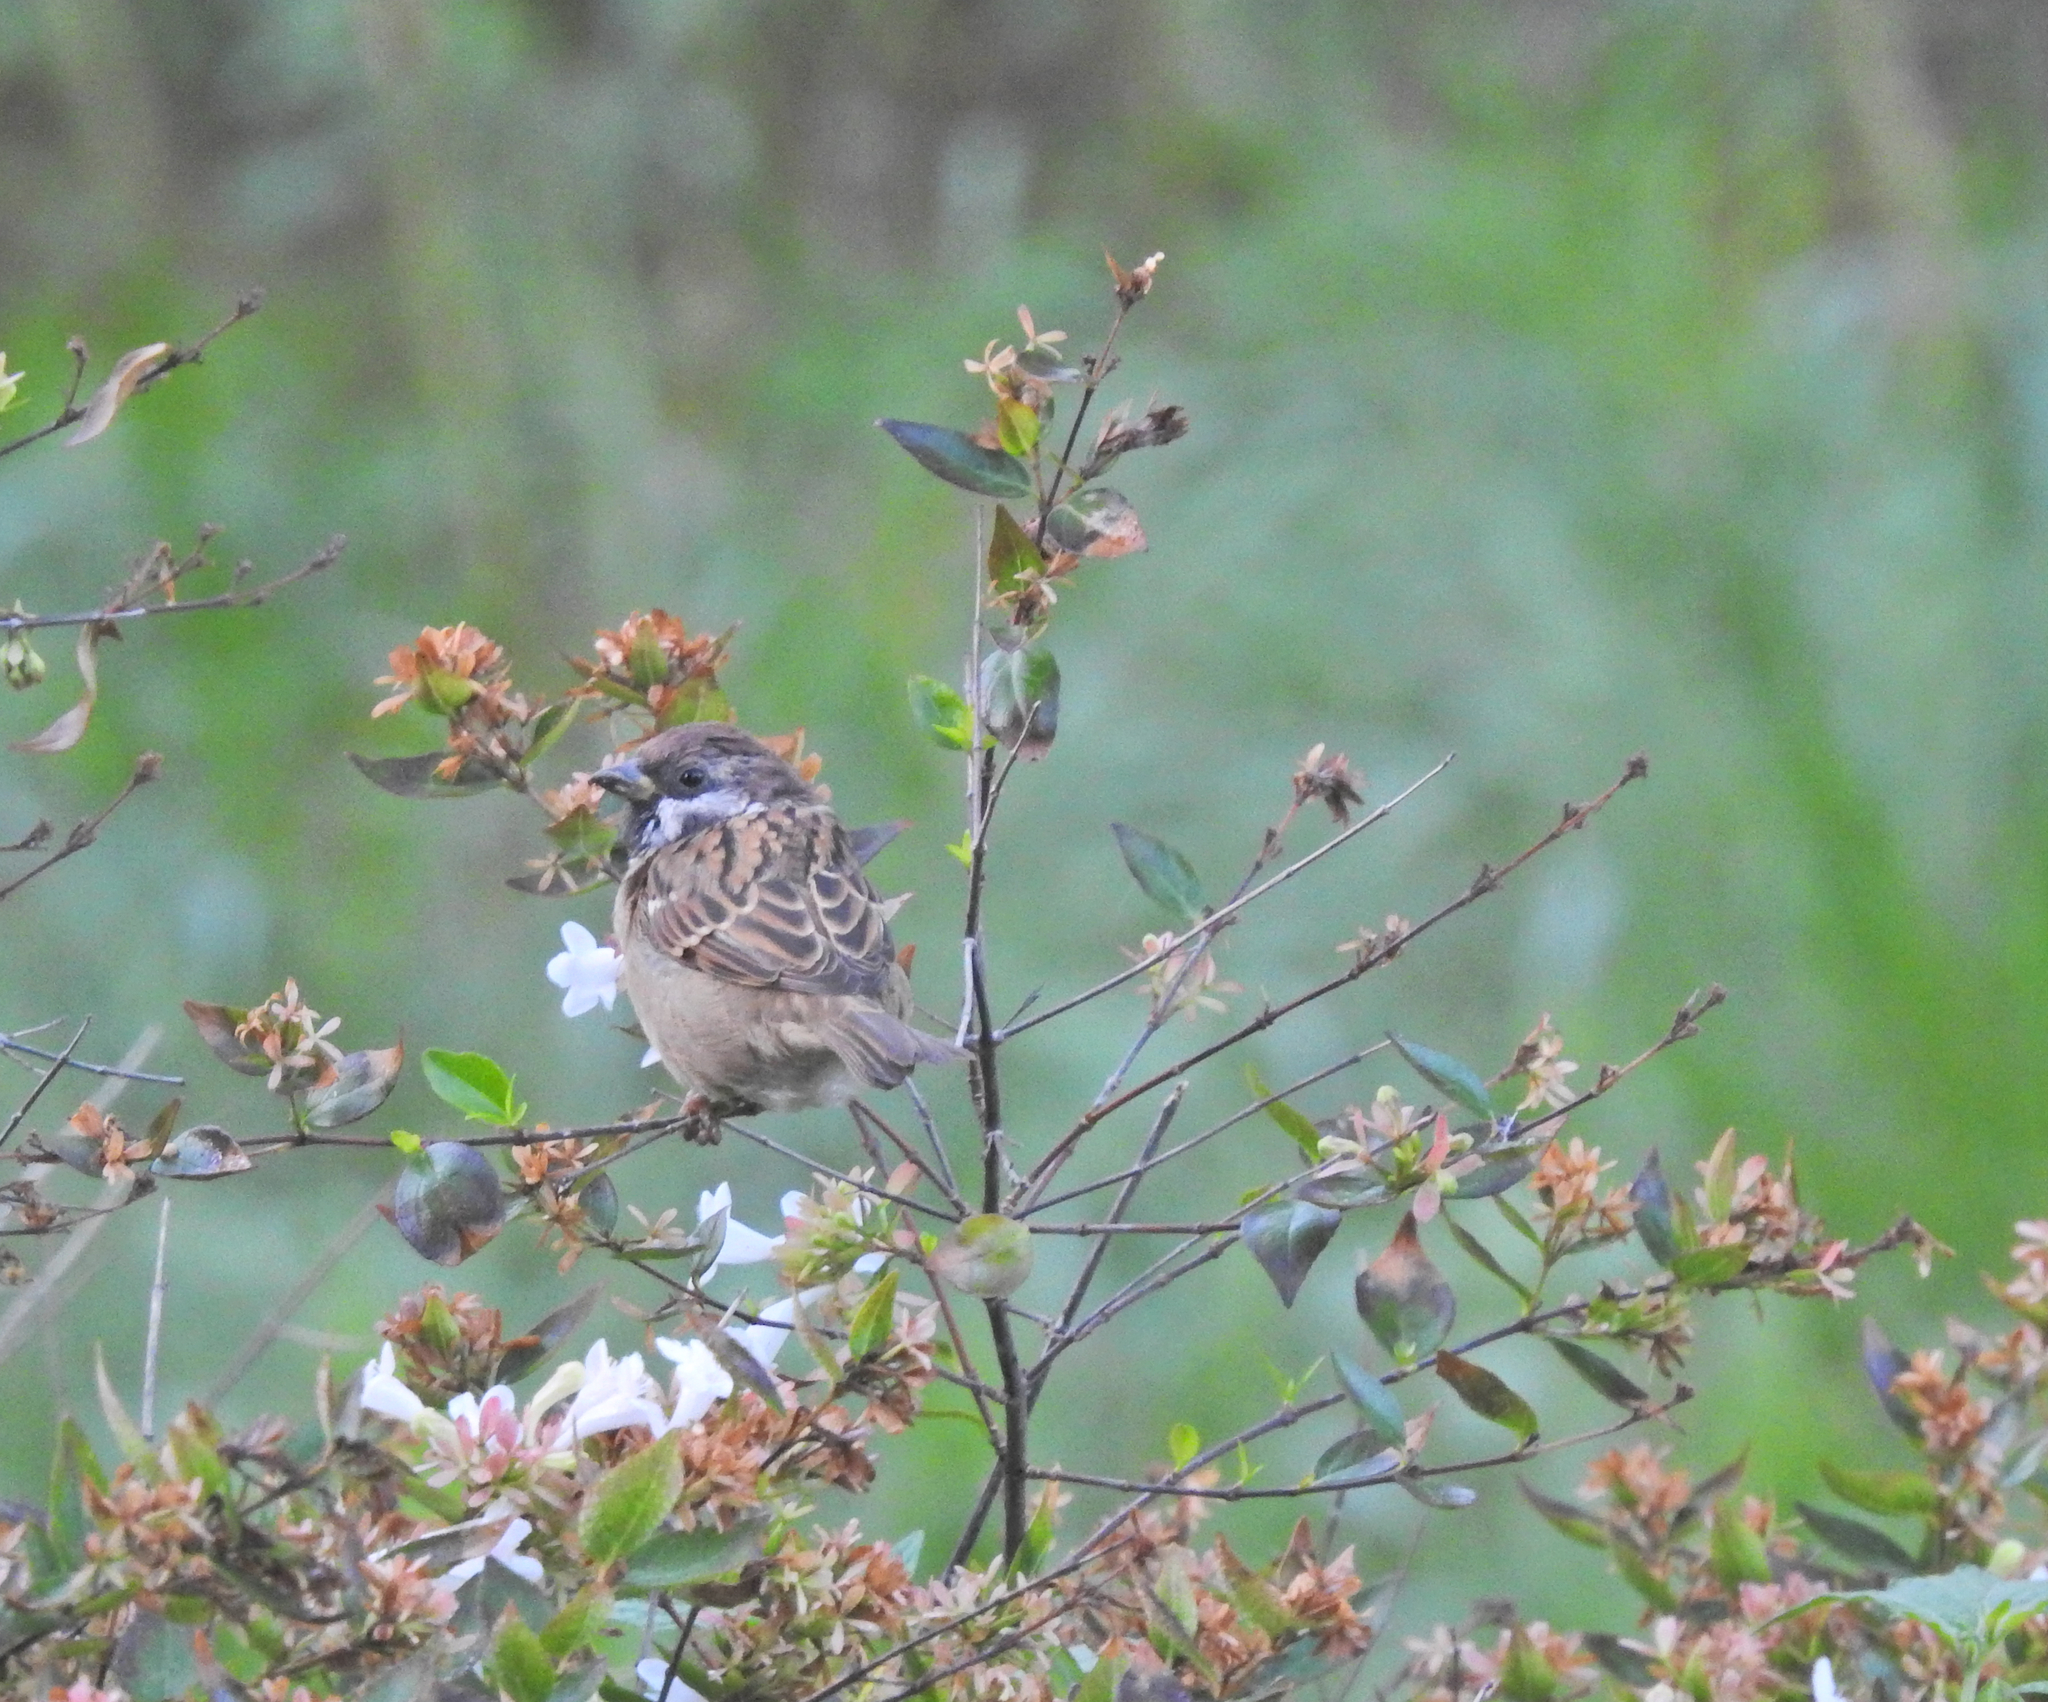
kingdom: Animalia
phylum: Chordata
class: Aves
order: Passeriformes
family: Passeridae
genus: Passer
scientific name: Passer montanus
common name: Eurasian tree sparrow
